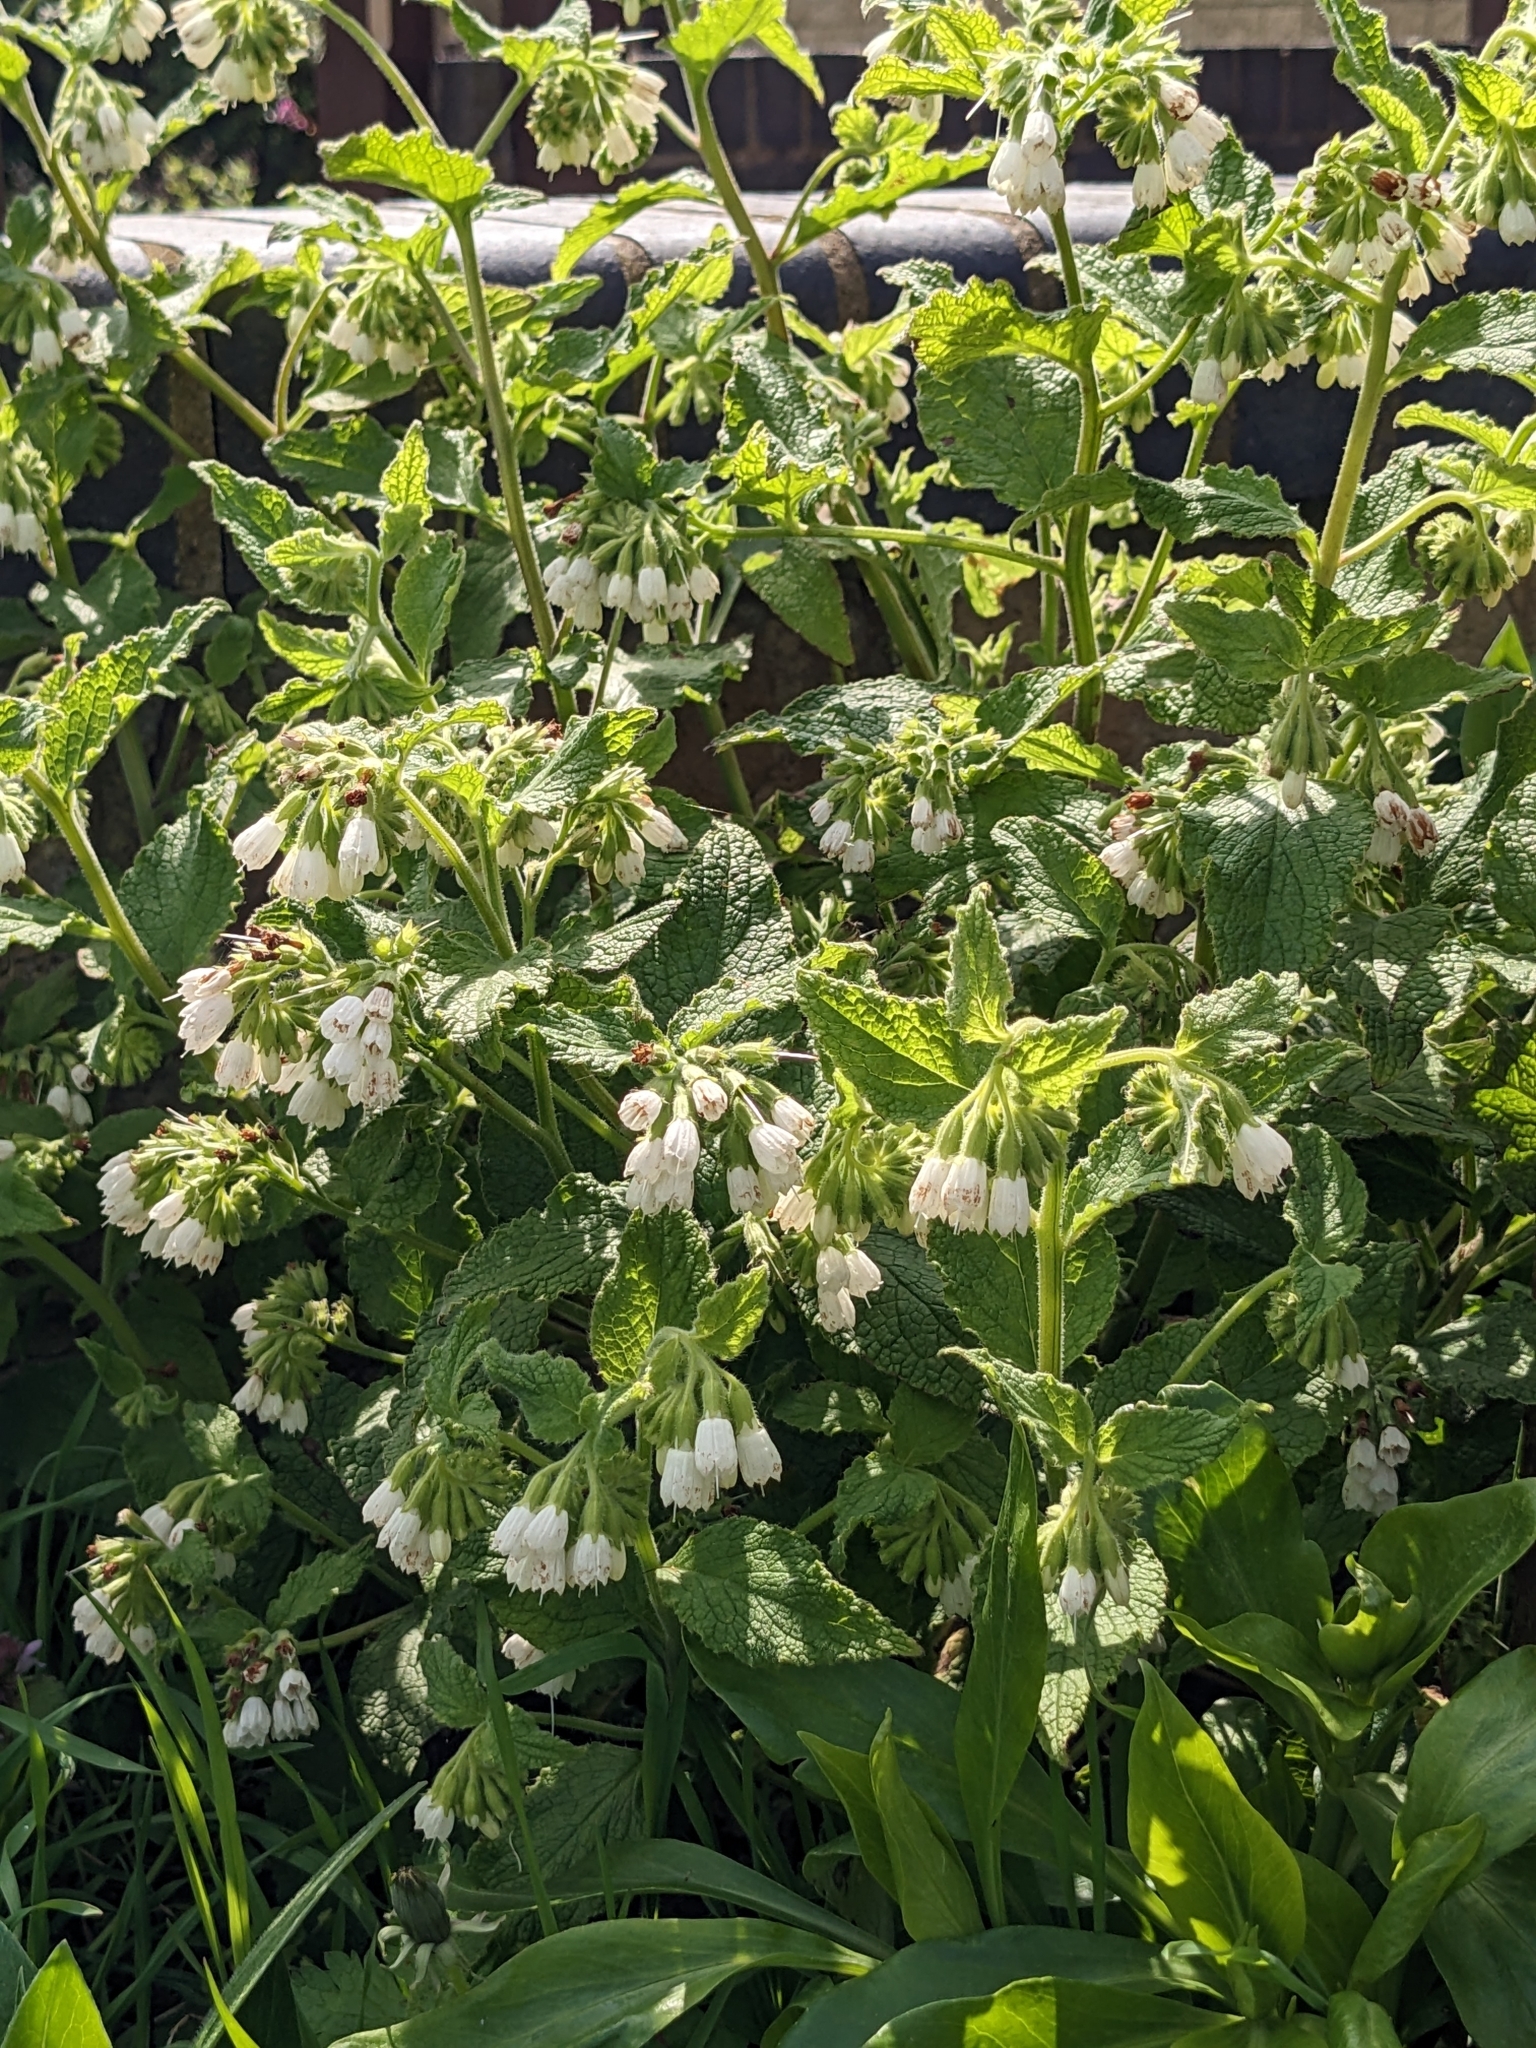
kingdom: Plantae
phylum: Tracheophyta
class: Magnoliopsida
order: Boraginales
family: Boraginaceae
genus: Symphytum
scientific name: Symphytum orientale
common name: White comfrey
